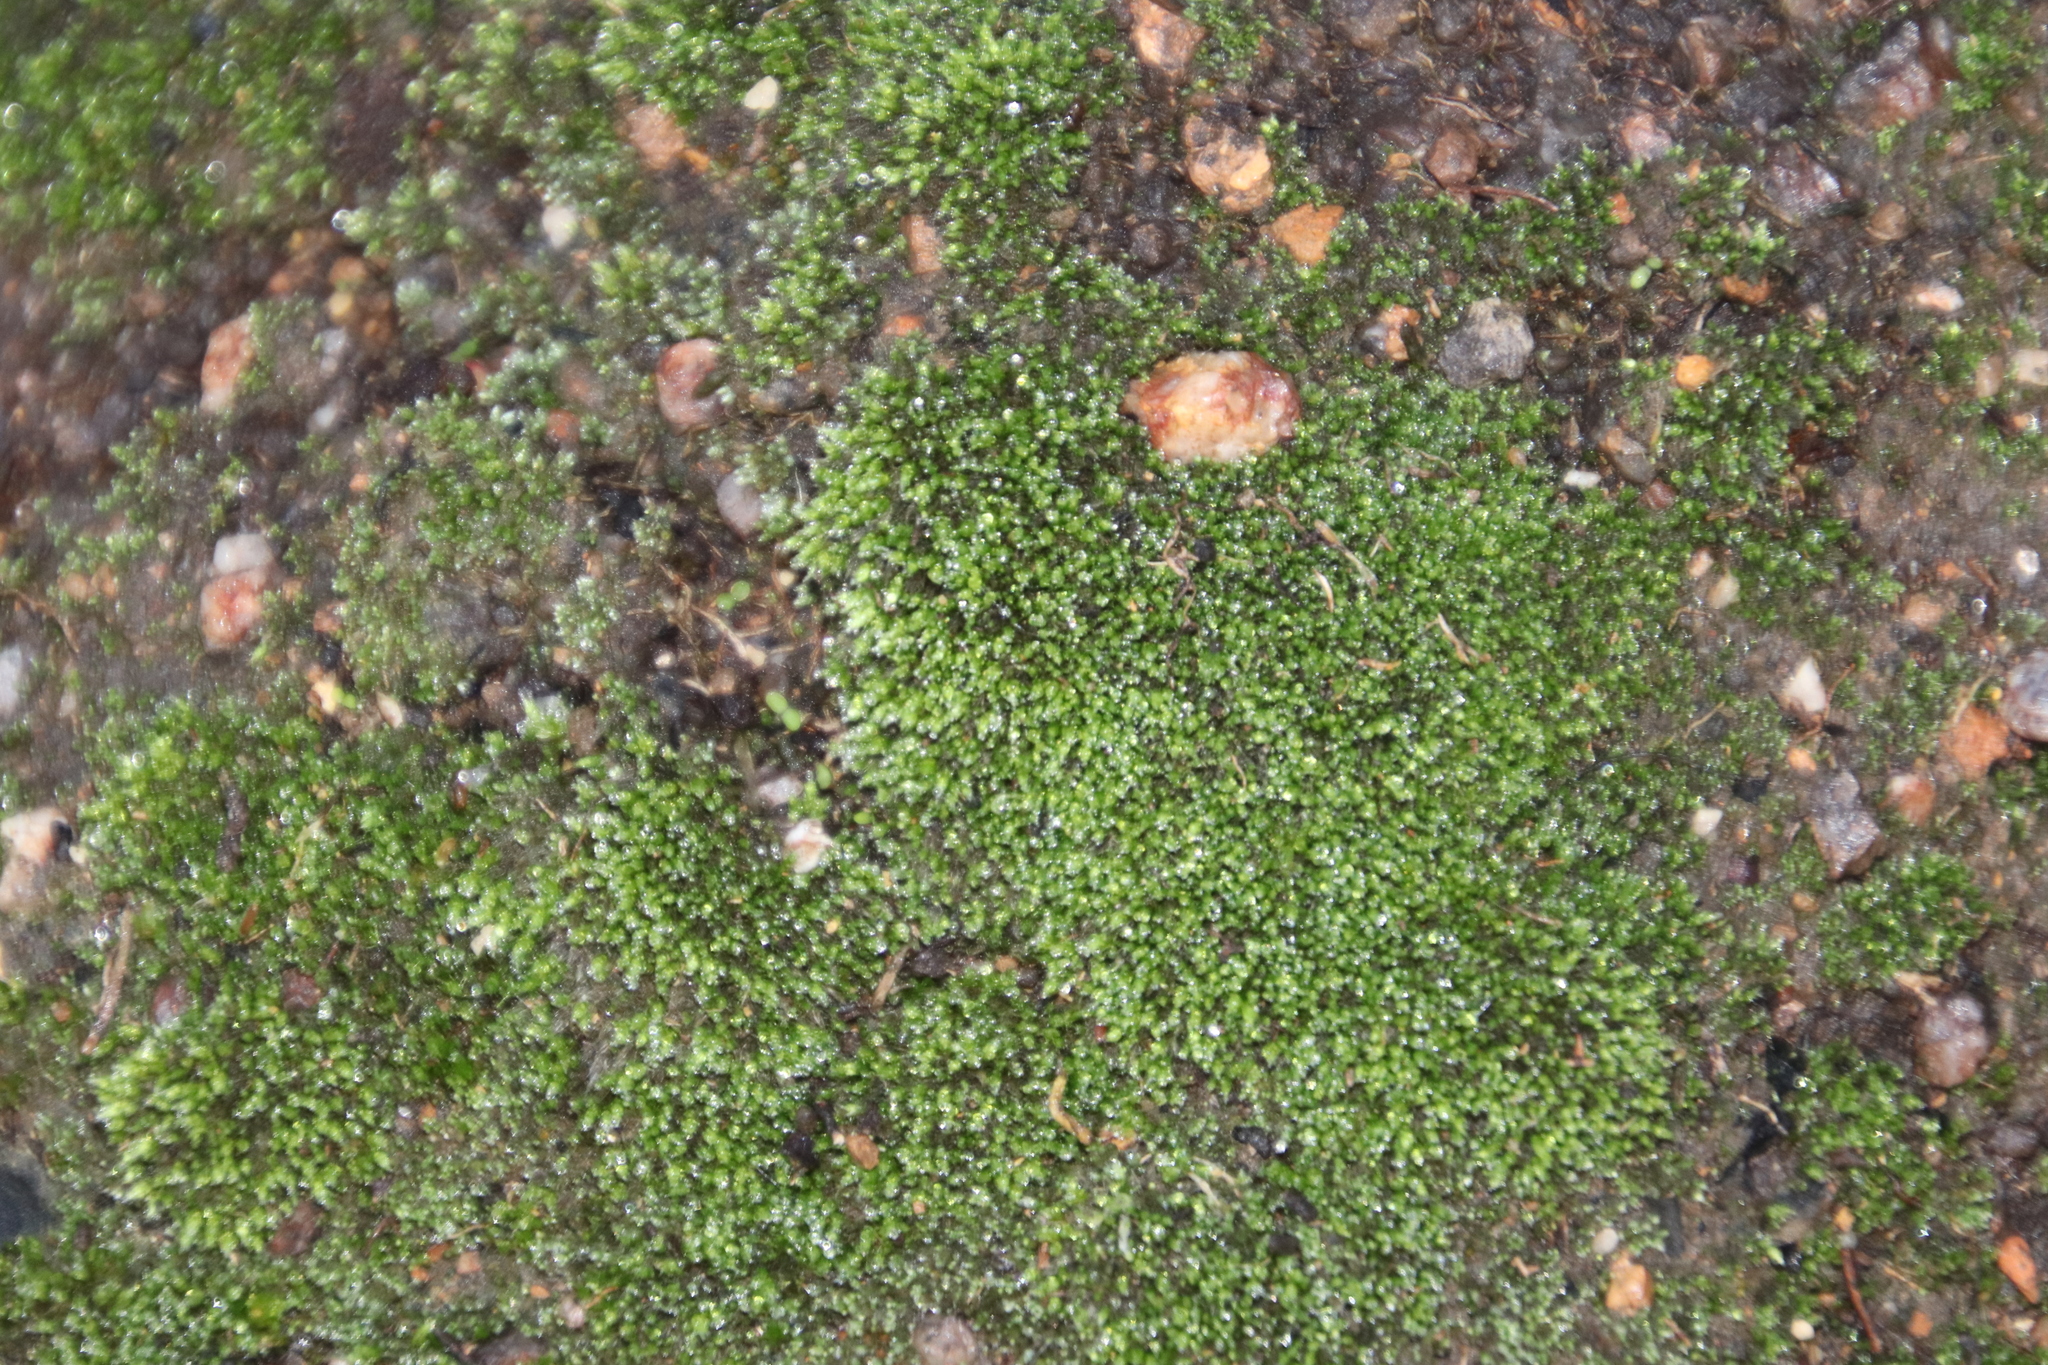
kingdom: Plantae
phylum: Bryophyta
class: Bryopsida
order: Bryales
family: Bryaceae
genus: Bryum
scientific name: Bryum argenteum
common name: Silver-moss
